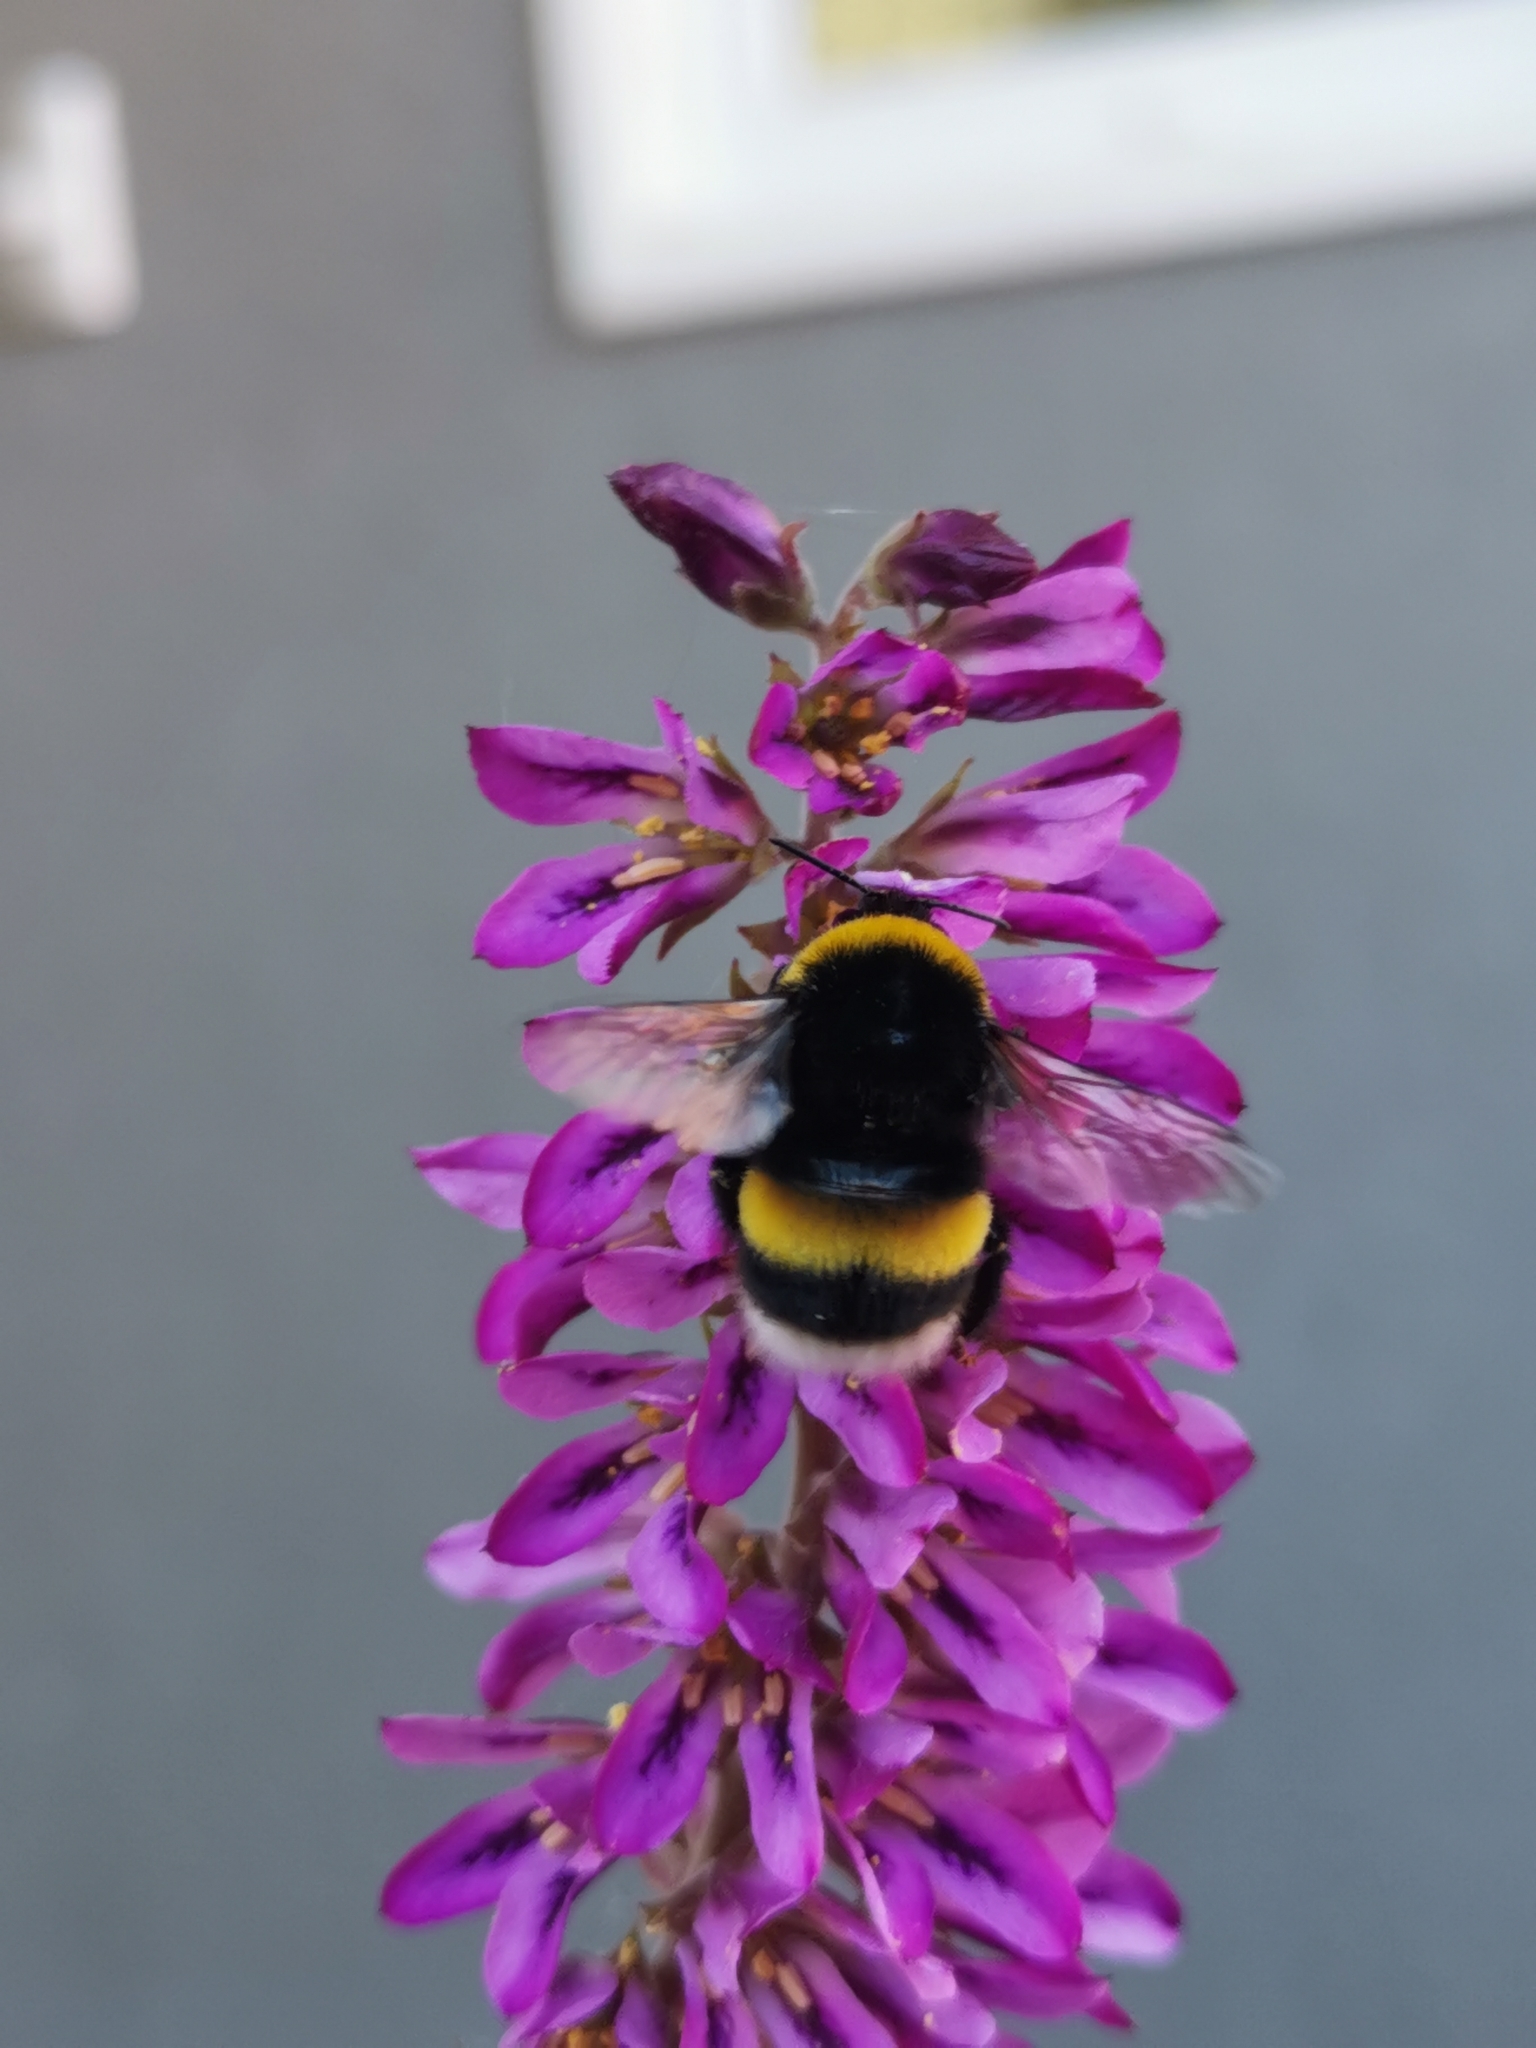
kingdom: Animalia
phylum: Arthropoda
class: Insecta
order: Hymenoptera
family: Apidae
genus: Bombus
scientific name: Bombus terrestris
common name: Buff-tailed bumblebee
